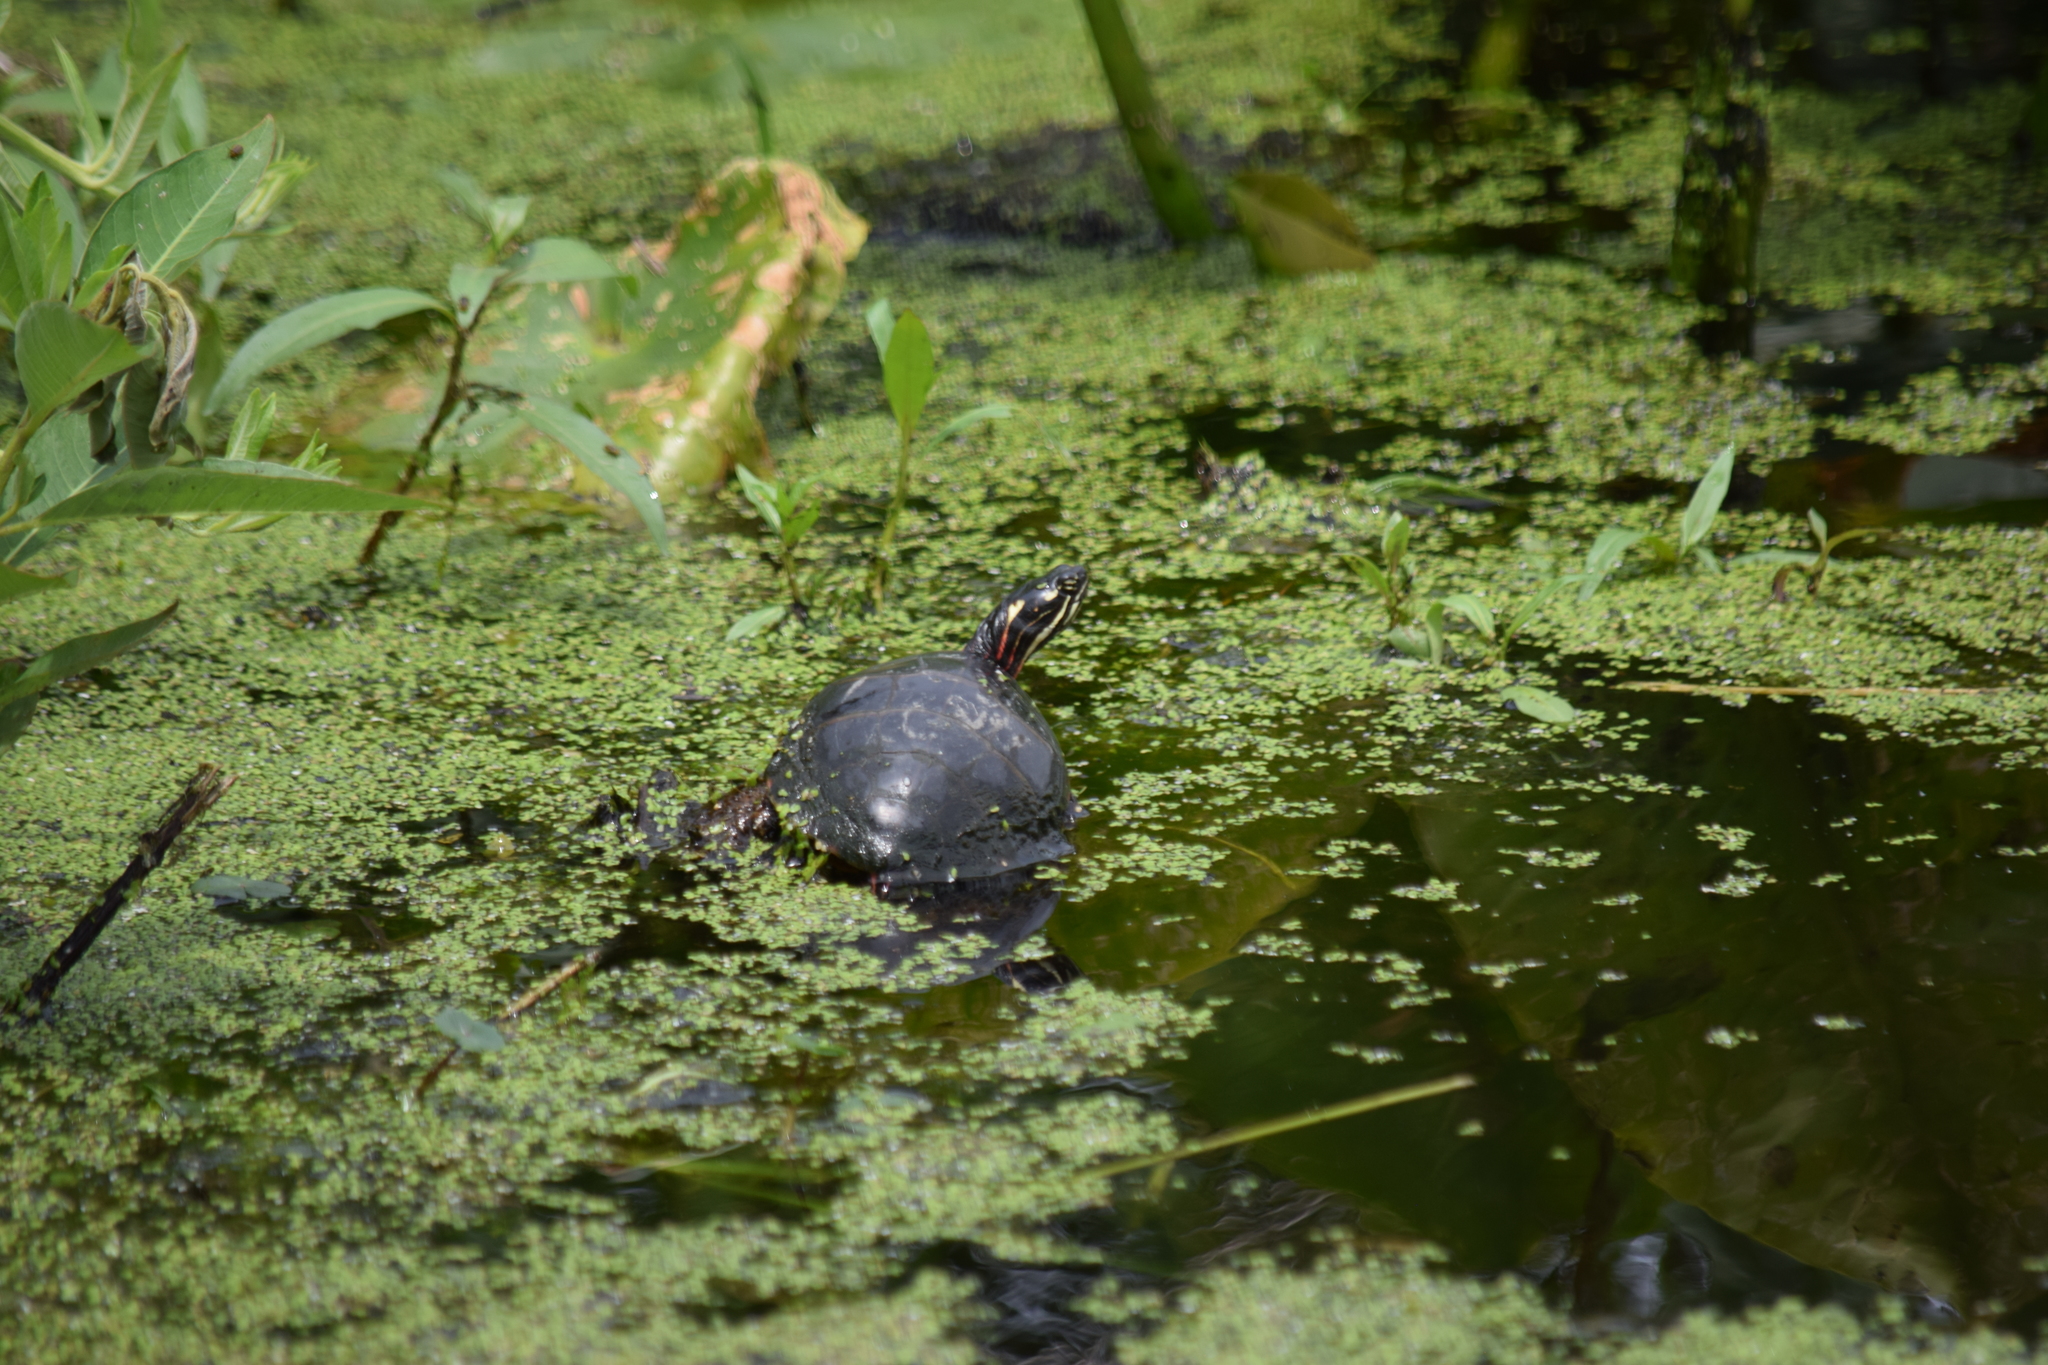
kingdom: Animalia
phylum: Chordata
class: Testudines
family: Emydidae
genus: Chrysemys
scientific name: Chrysemys picta
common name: Painted turtle
